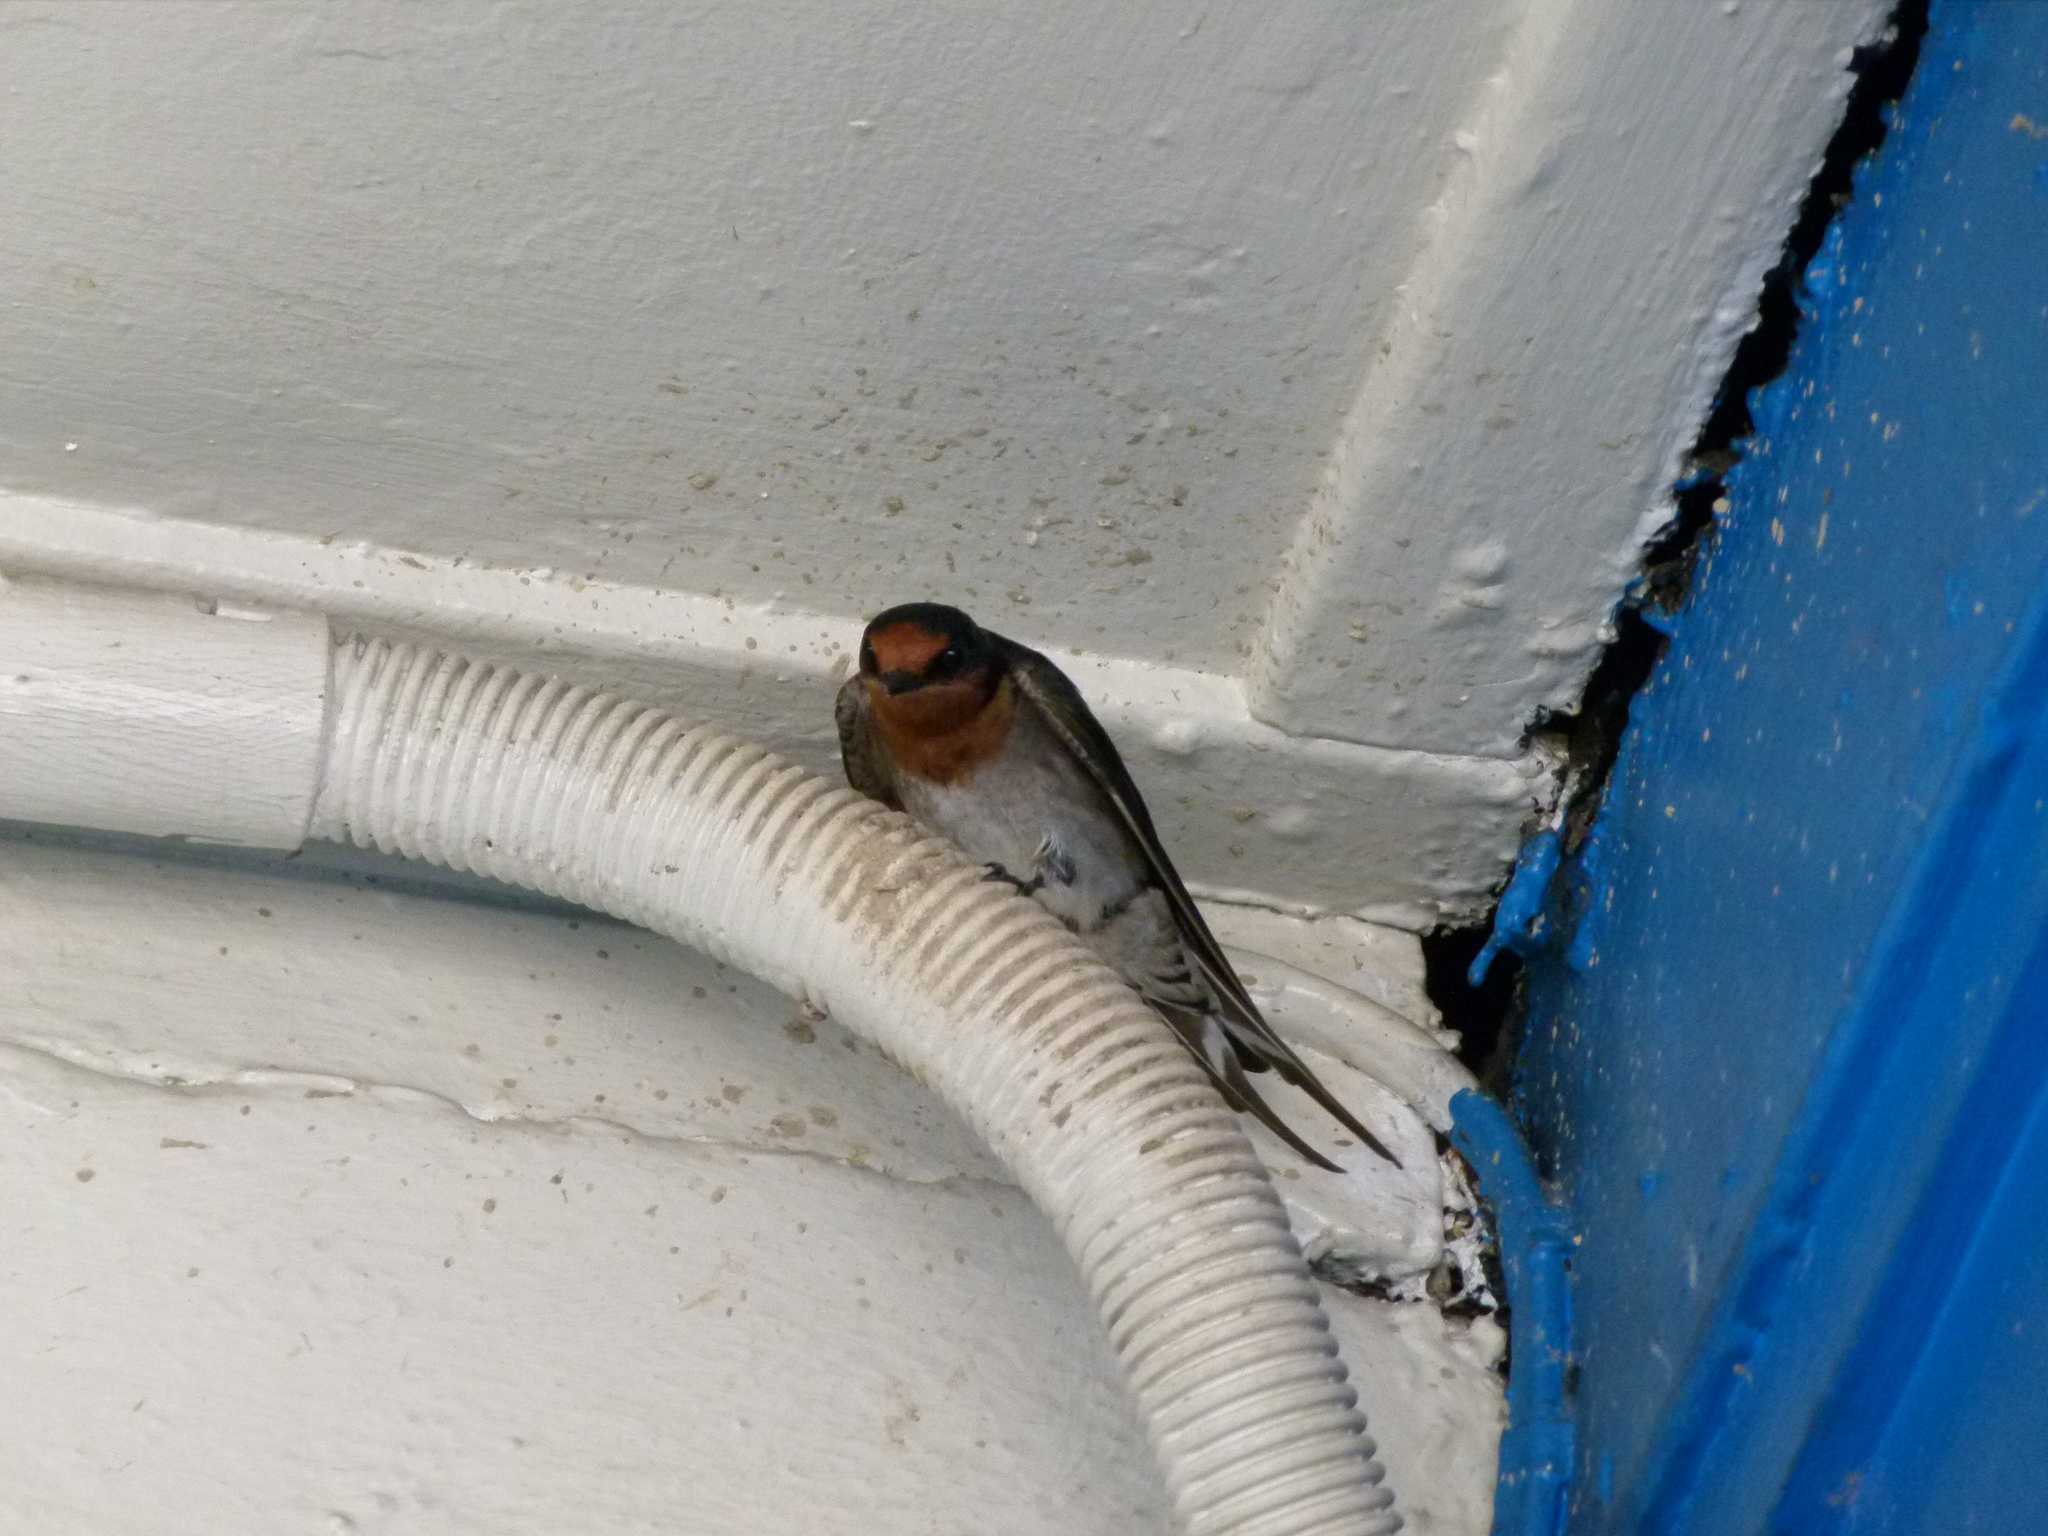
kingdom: Animalia
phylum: Chordata
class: Aves
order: Passeriformes
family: Hirundinidae
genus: Hirundo
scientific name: Hirundo neoxena
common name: Welcome swallow
